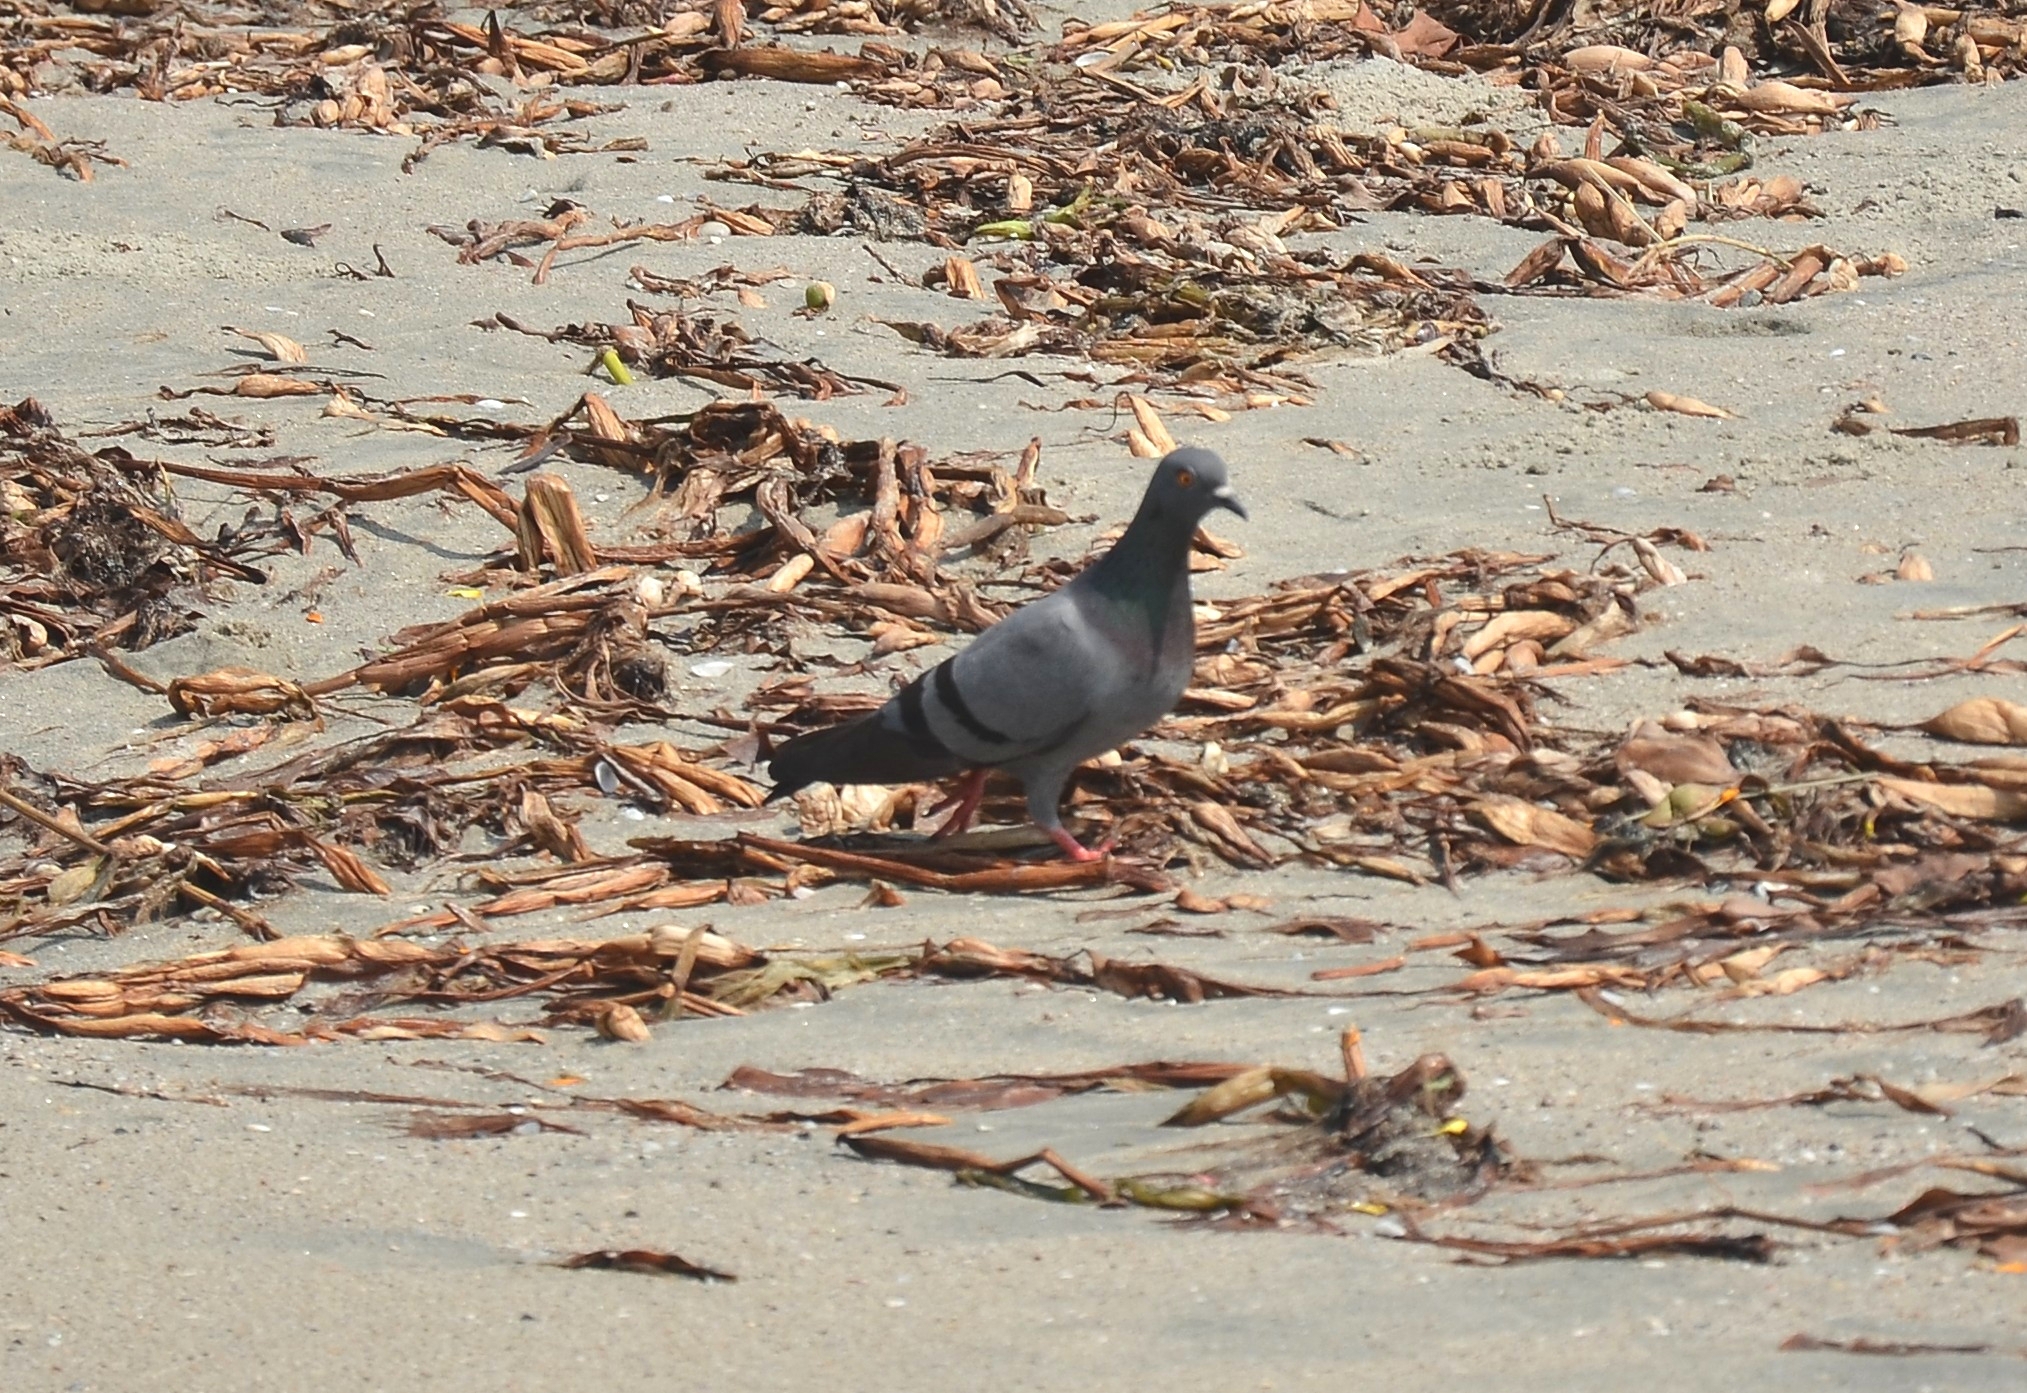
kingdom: Animalia
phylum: Chordata
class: Aves
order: Columbiformes
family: Columbidae
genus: Columba
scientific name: Columba livia
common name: Rock pigeon
